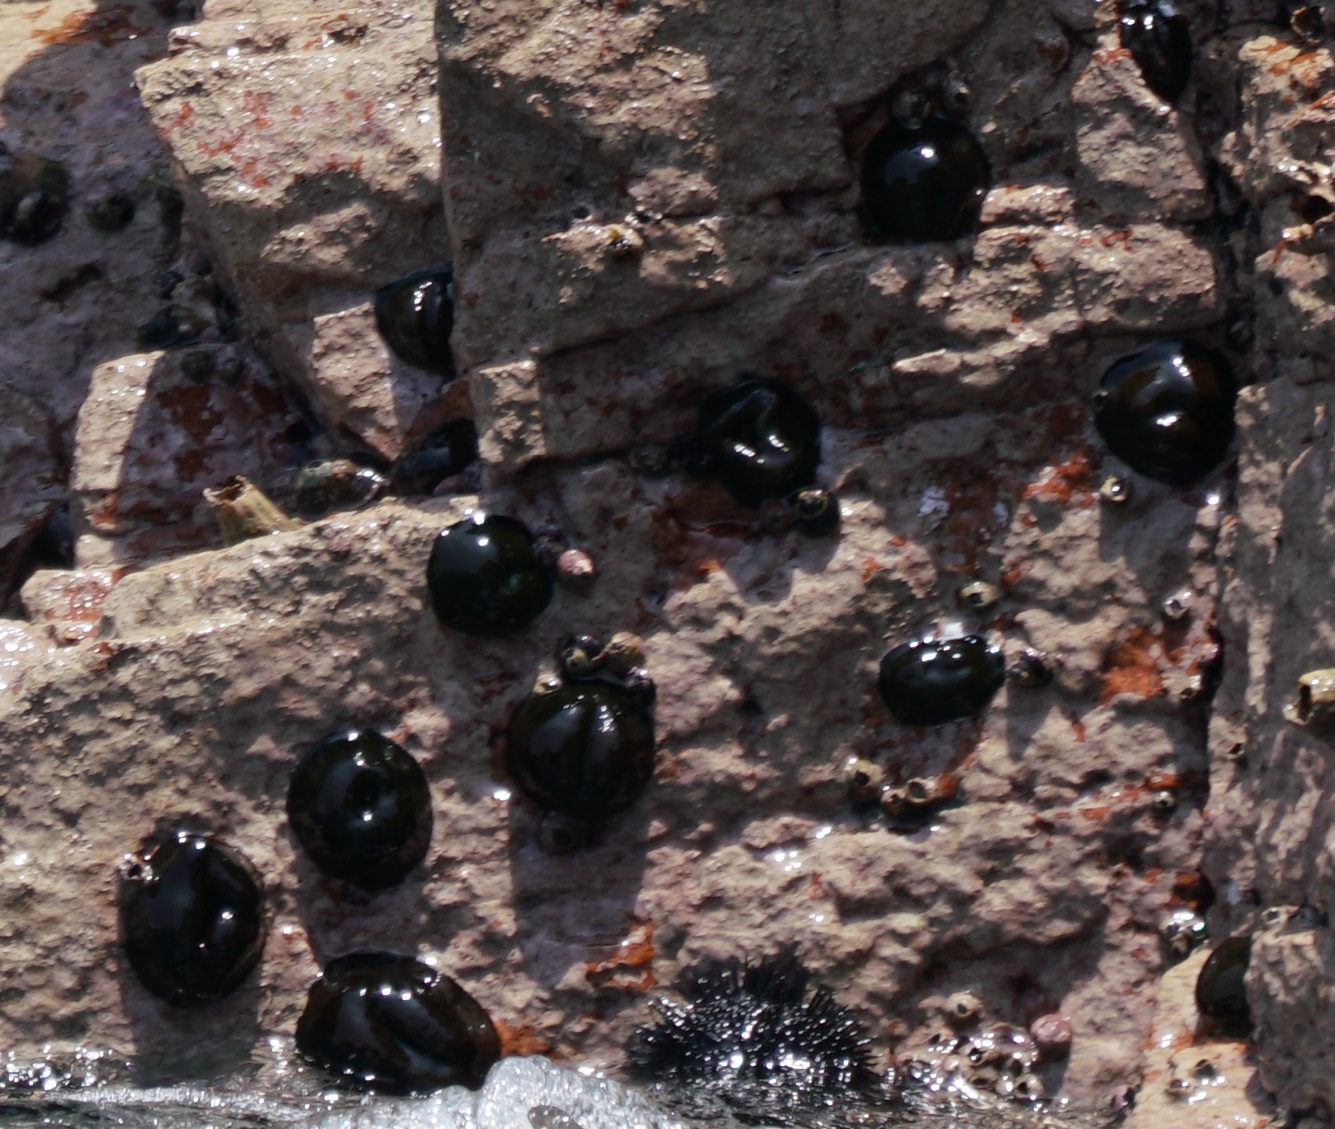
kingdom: Animalia
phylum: Cnidaria
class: Anthozoa
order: Actiniaria
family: Actiniidae
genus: Phymactis
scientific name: Phymactis papillosa
